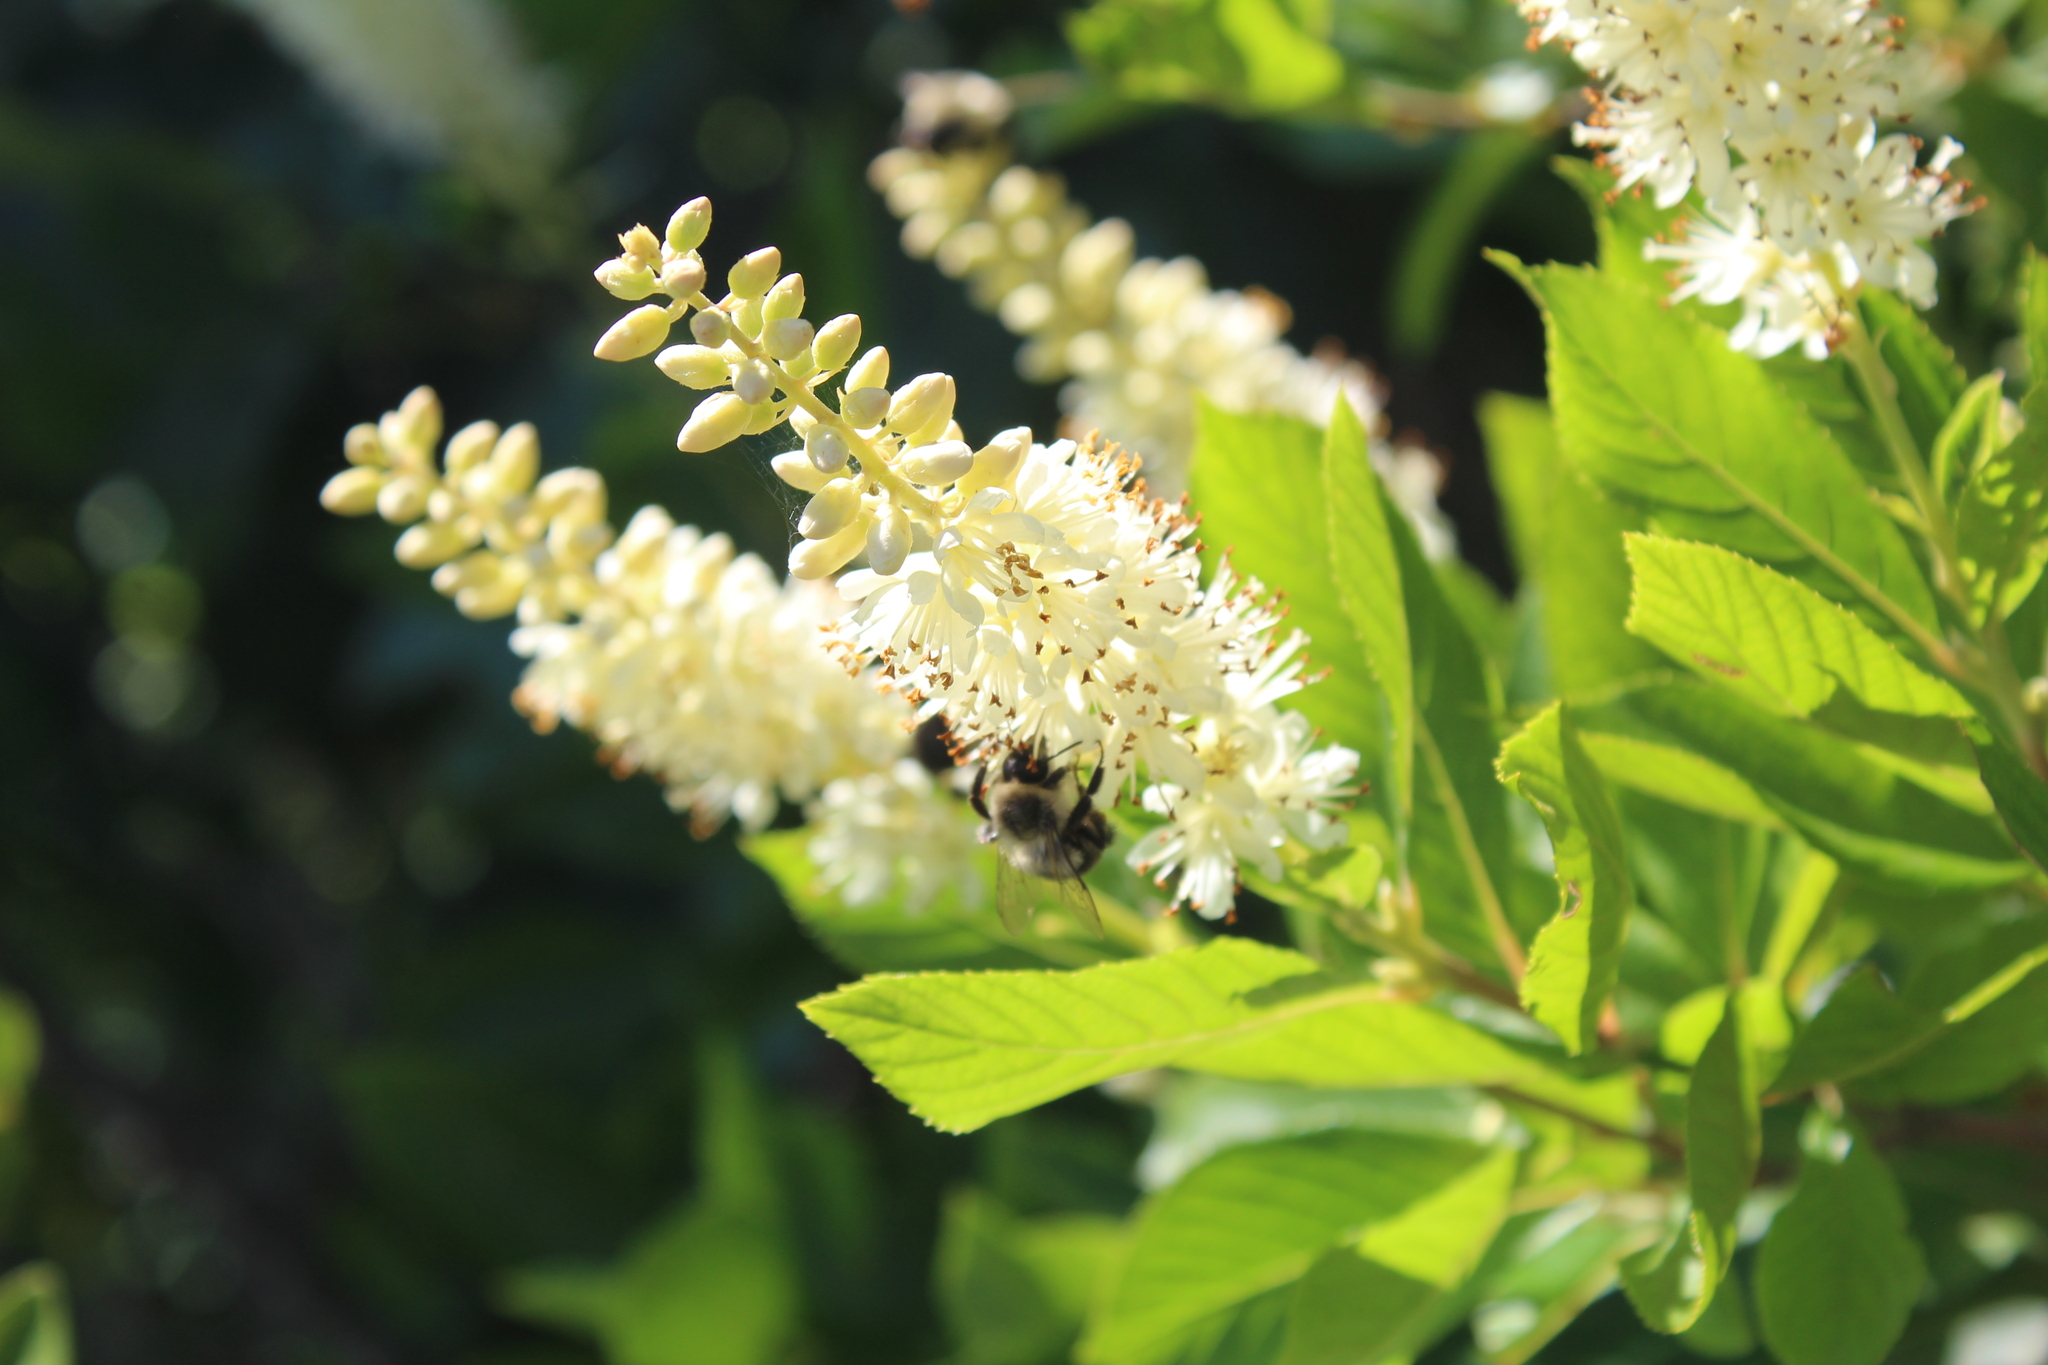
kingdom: Animalia
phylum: Arthropoda
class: Insecta
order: Hymenoptera
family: Apidae
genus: Bombus
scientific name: Bombus impatiens
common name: Common eastern bumble bee
